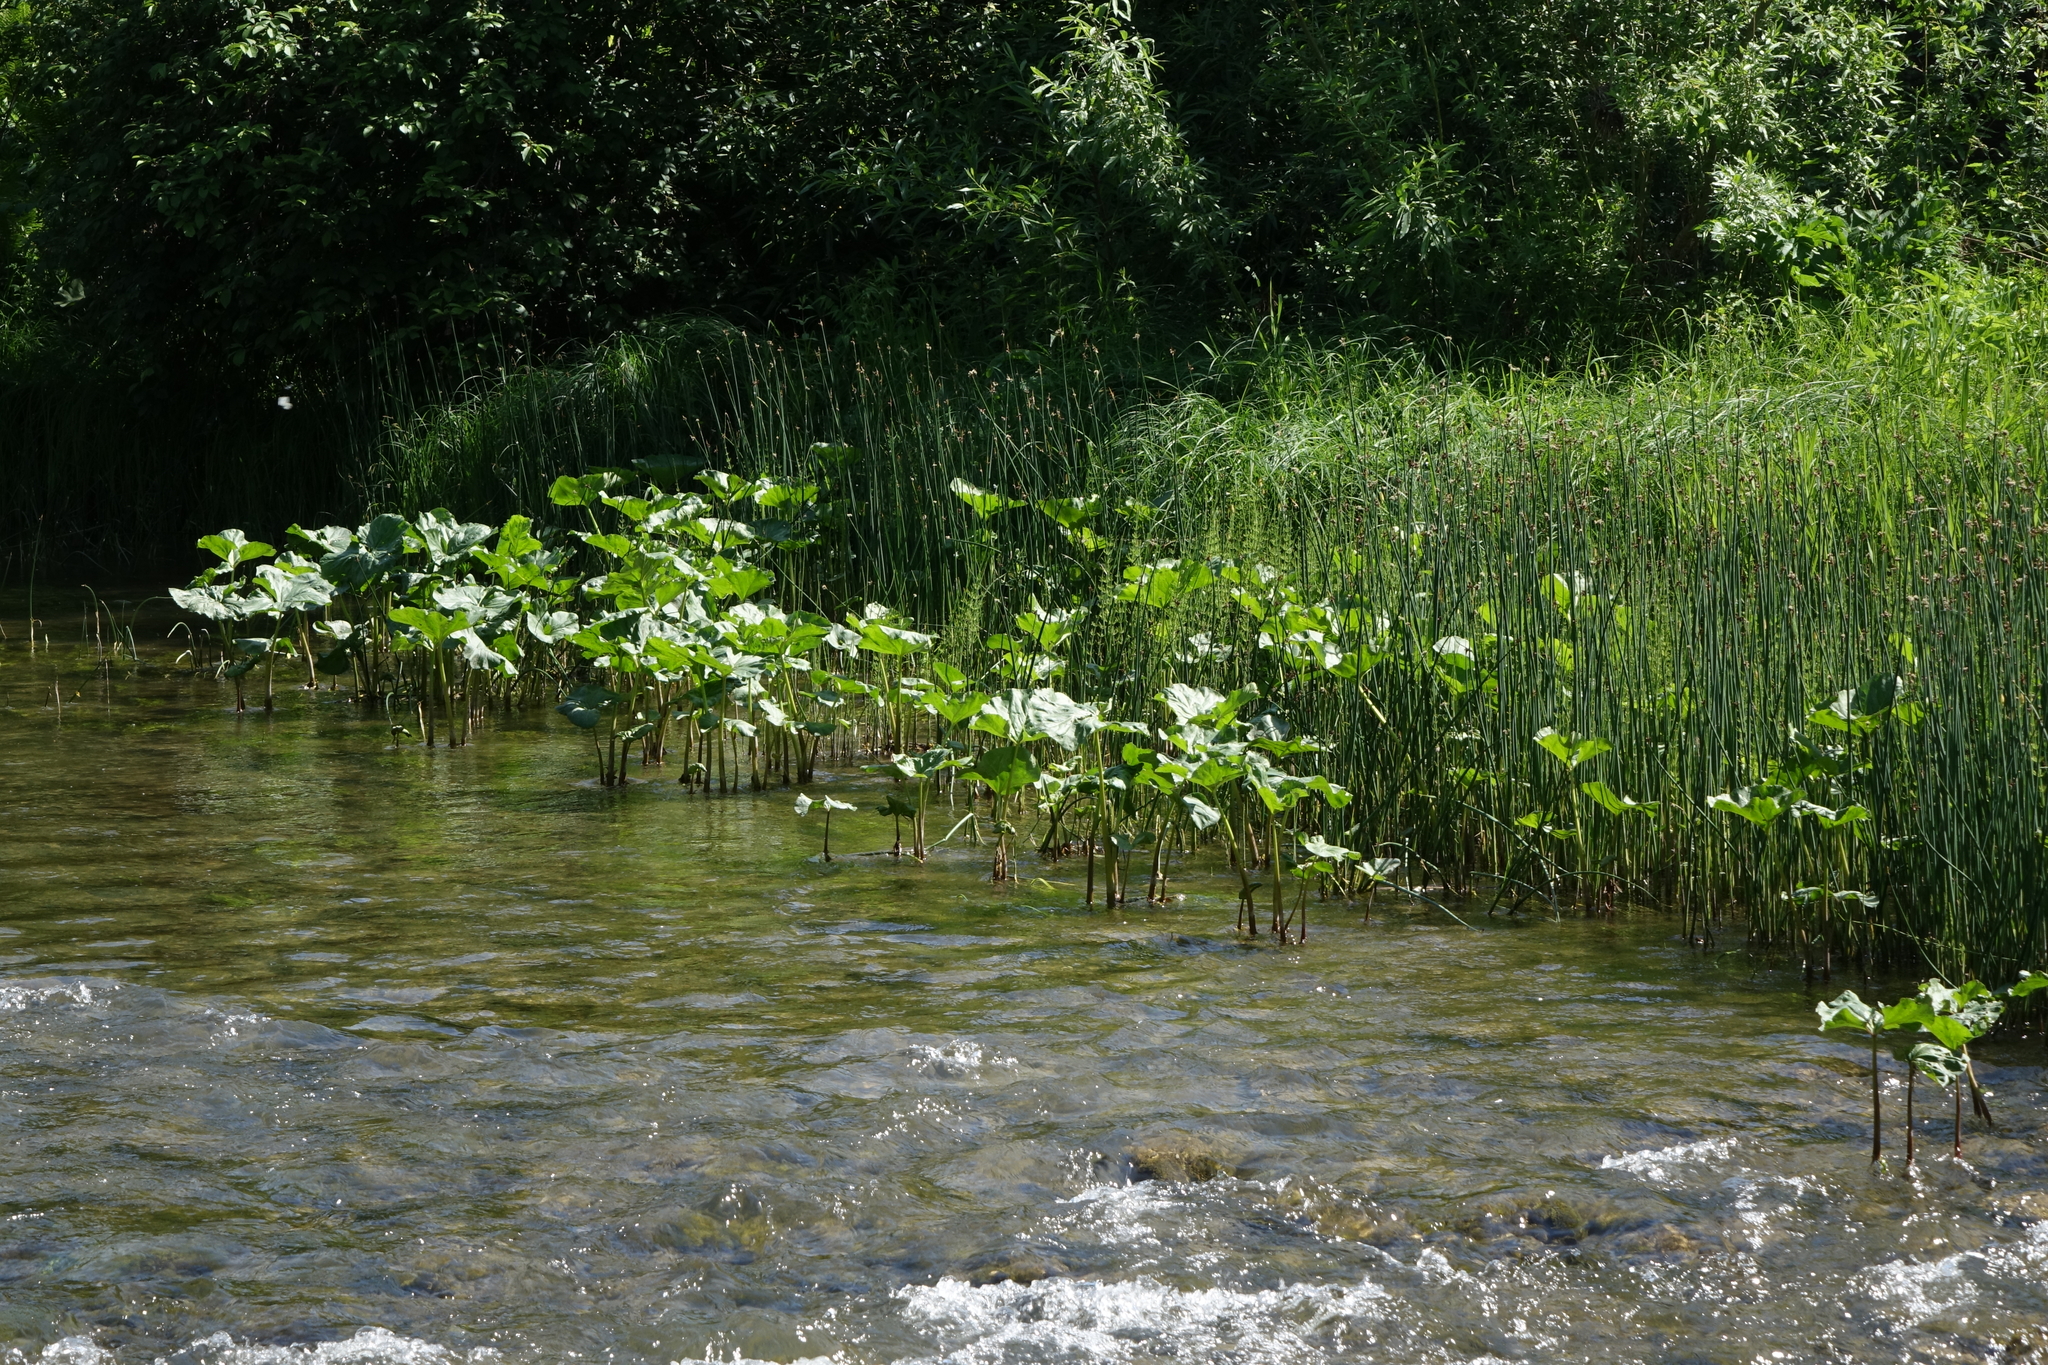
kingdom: Plantae
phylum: Tracheophyta
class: Magnoliopsida
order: Asterales
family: Asteraceae
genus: Petasites
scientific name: Petasites radiatus
